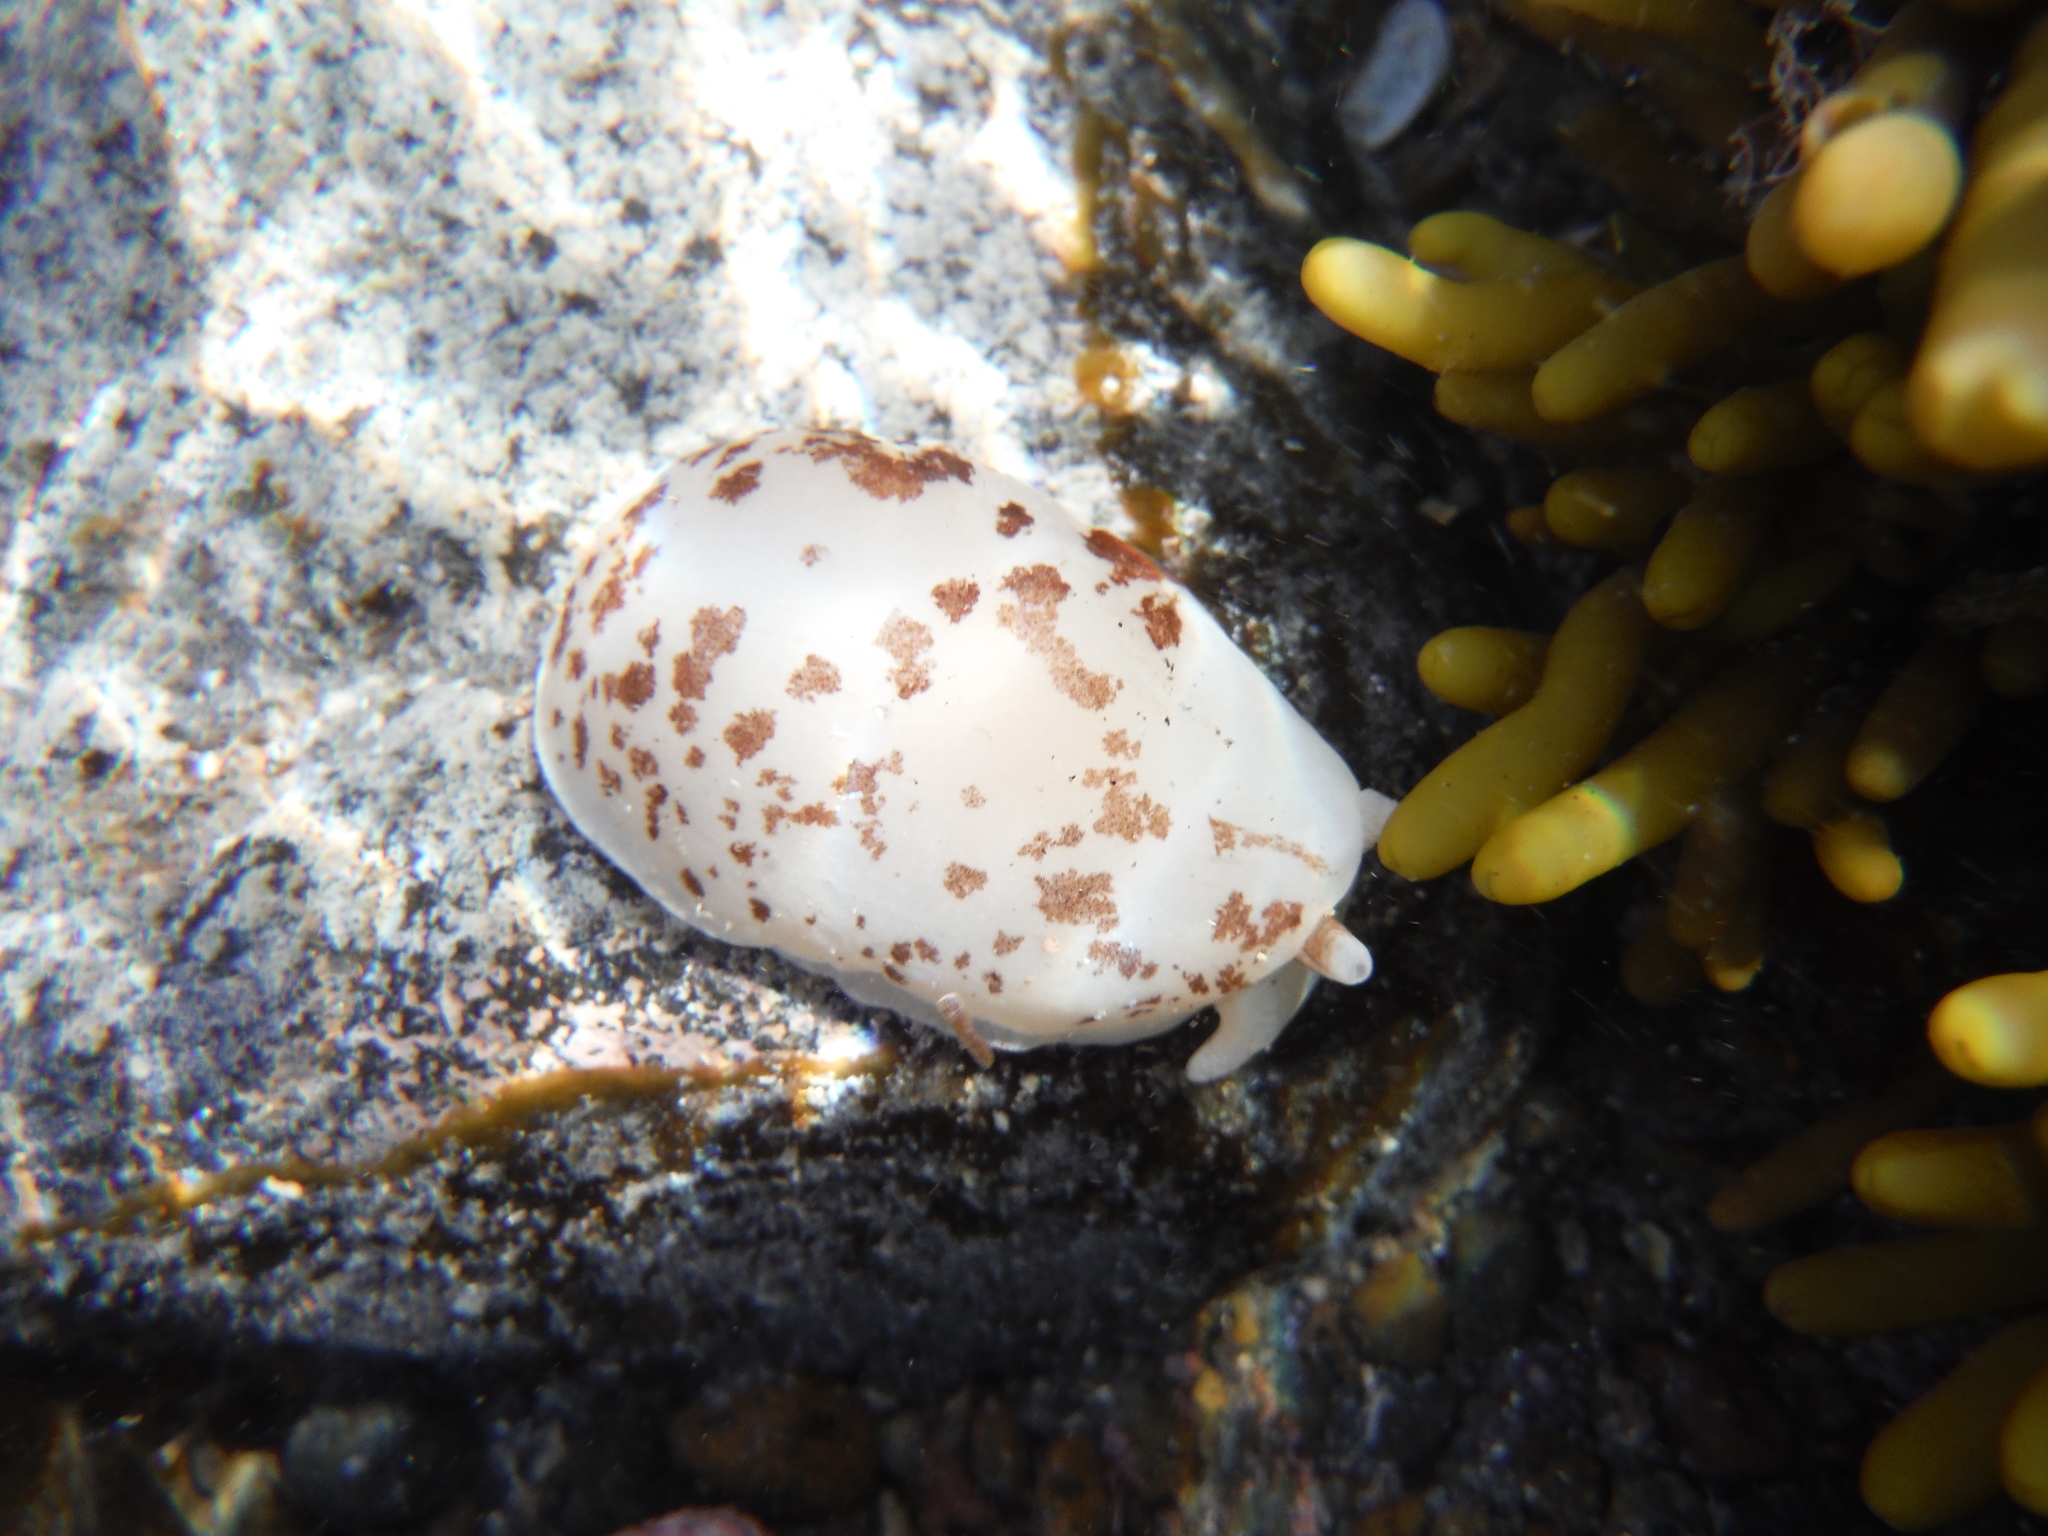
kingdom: Animalia
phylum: Mollusca
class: Gastropoda
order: Pleurobranchida
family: Pleurobranchidae
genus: Berthella
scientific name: Berthella ornata
